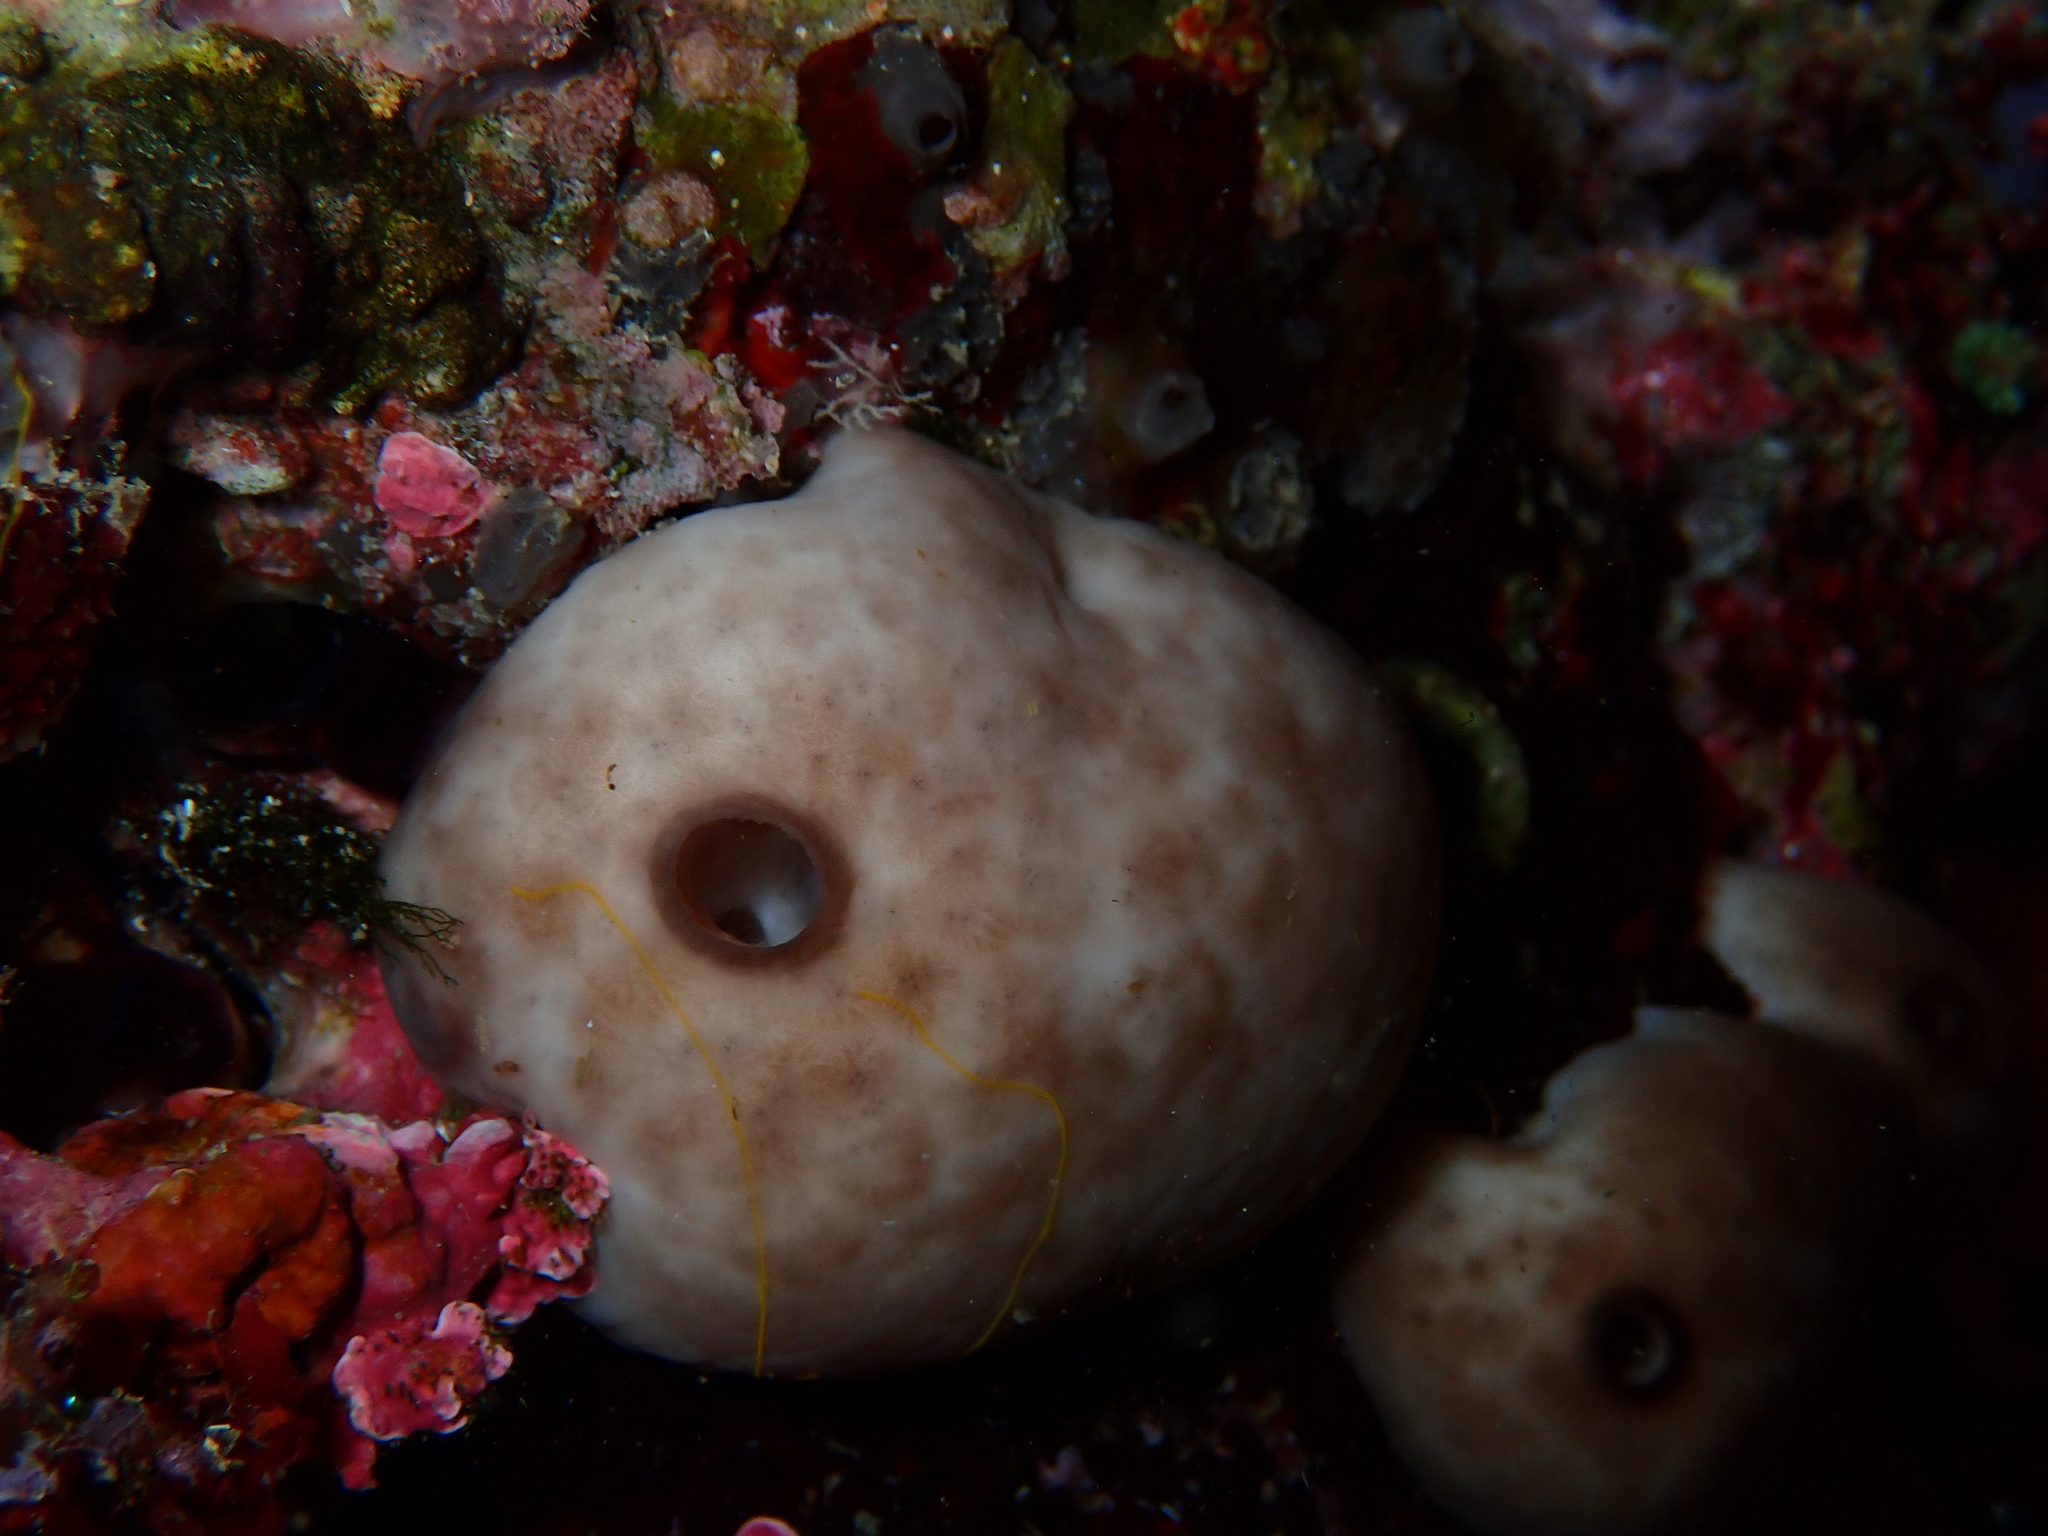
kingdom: Animalia
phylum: Porifera
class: Demospongiae
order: Chondrosiida
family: Chondrosiidae
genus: Chondrosia
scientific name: Chondrosia reniformis
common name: Chicken liver sponge
